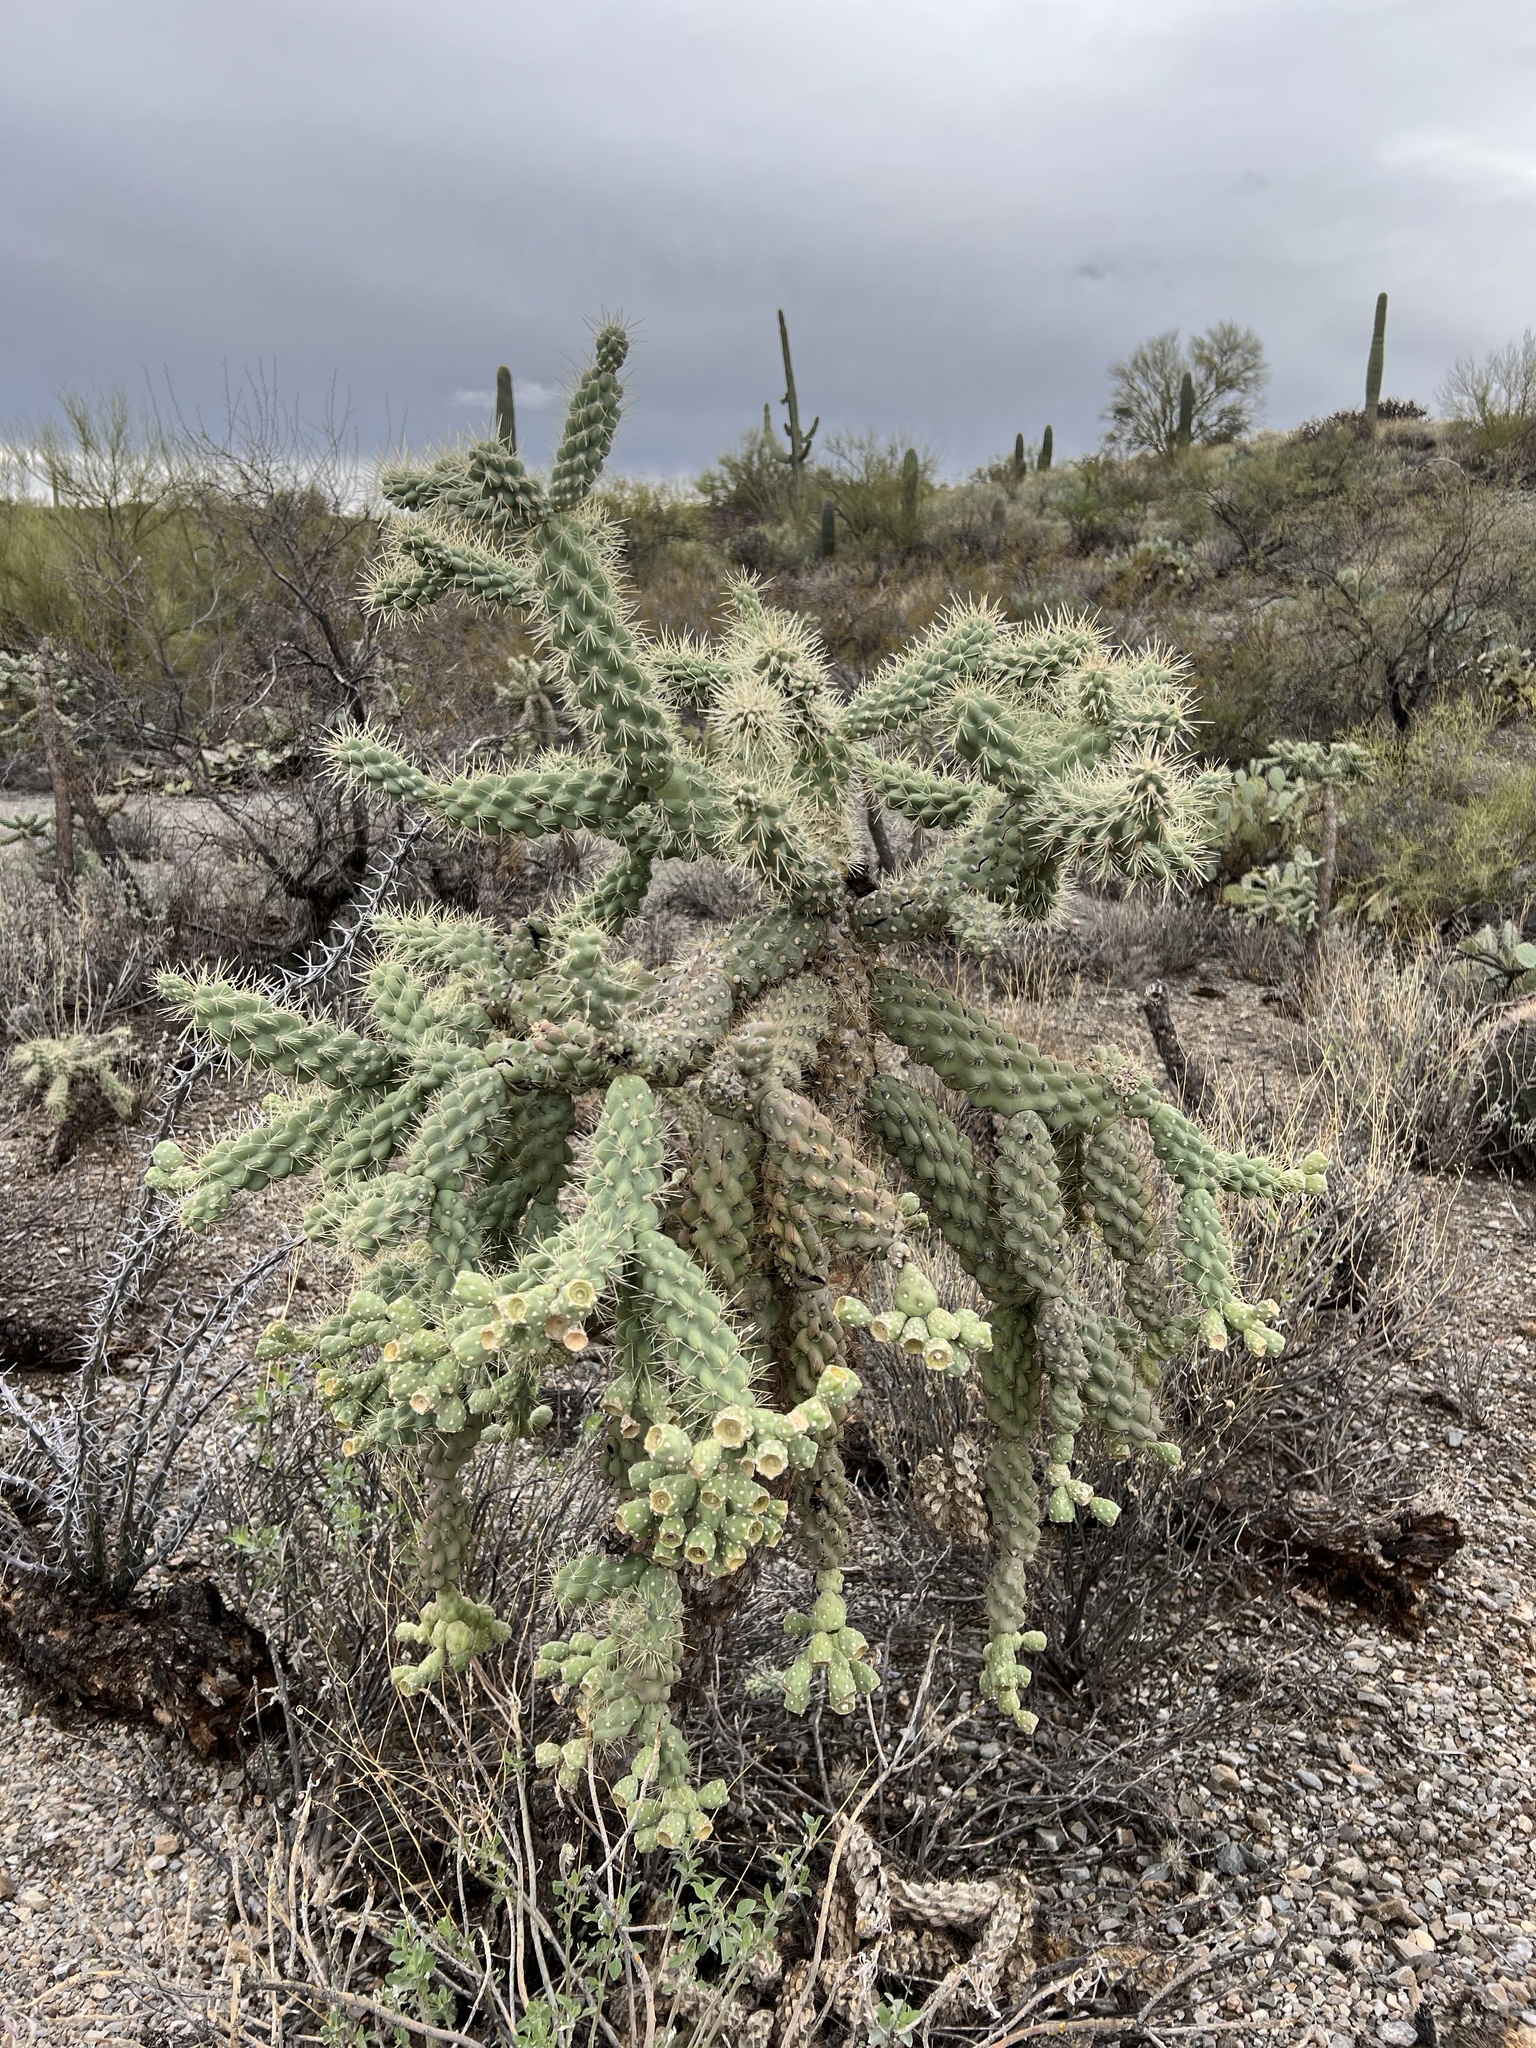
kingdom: Plantae
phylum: Tracheophyta
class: Magnoliopsida
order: Caryophyllales
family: Cactaceae
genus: Cylindropuntia
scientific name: Cylindropuntia fulgida
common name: Jumping cholla
